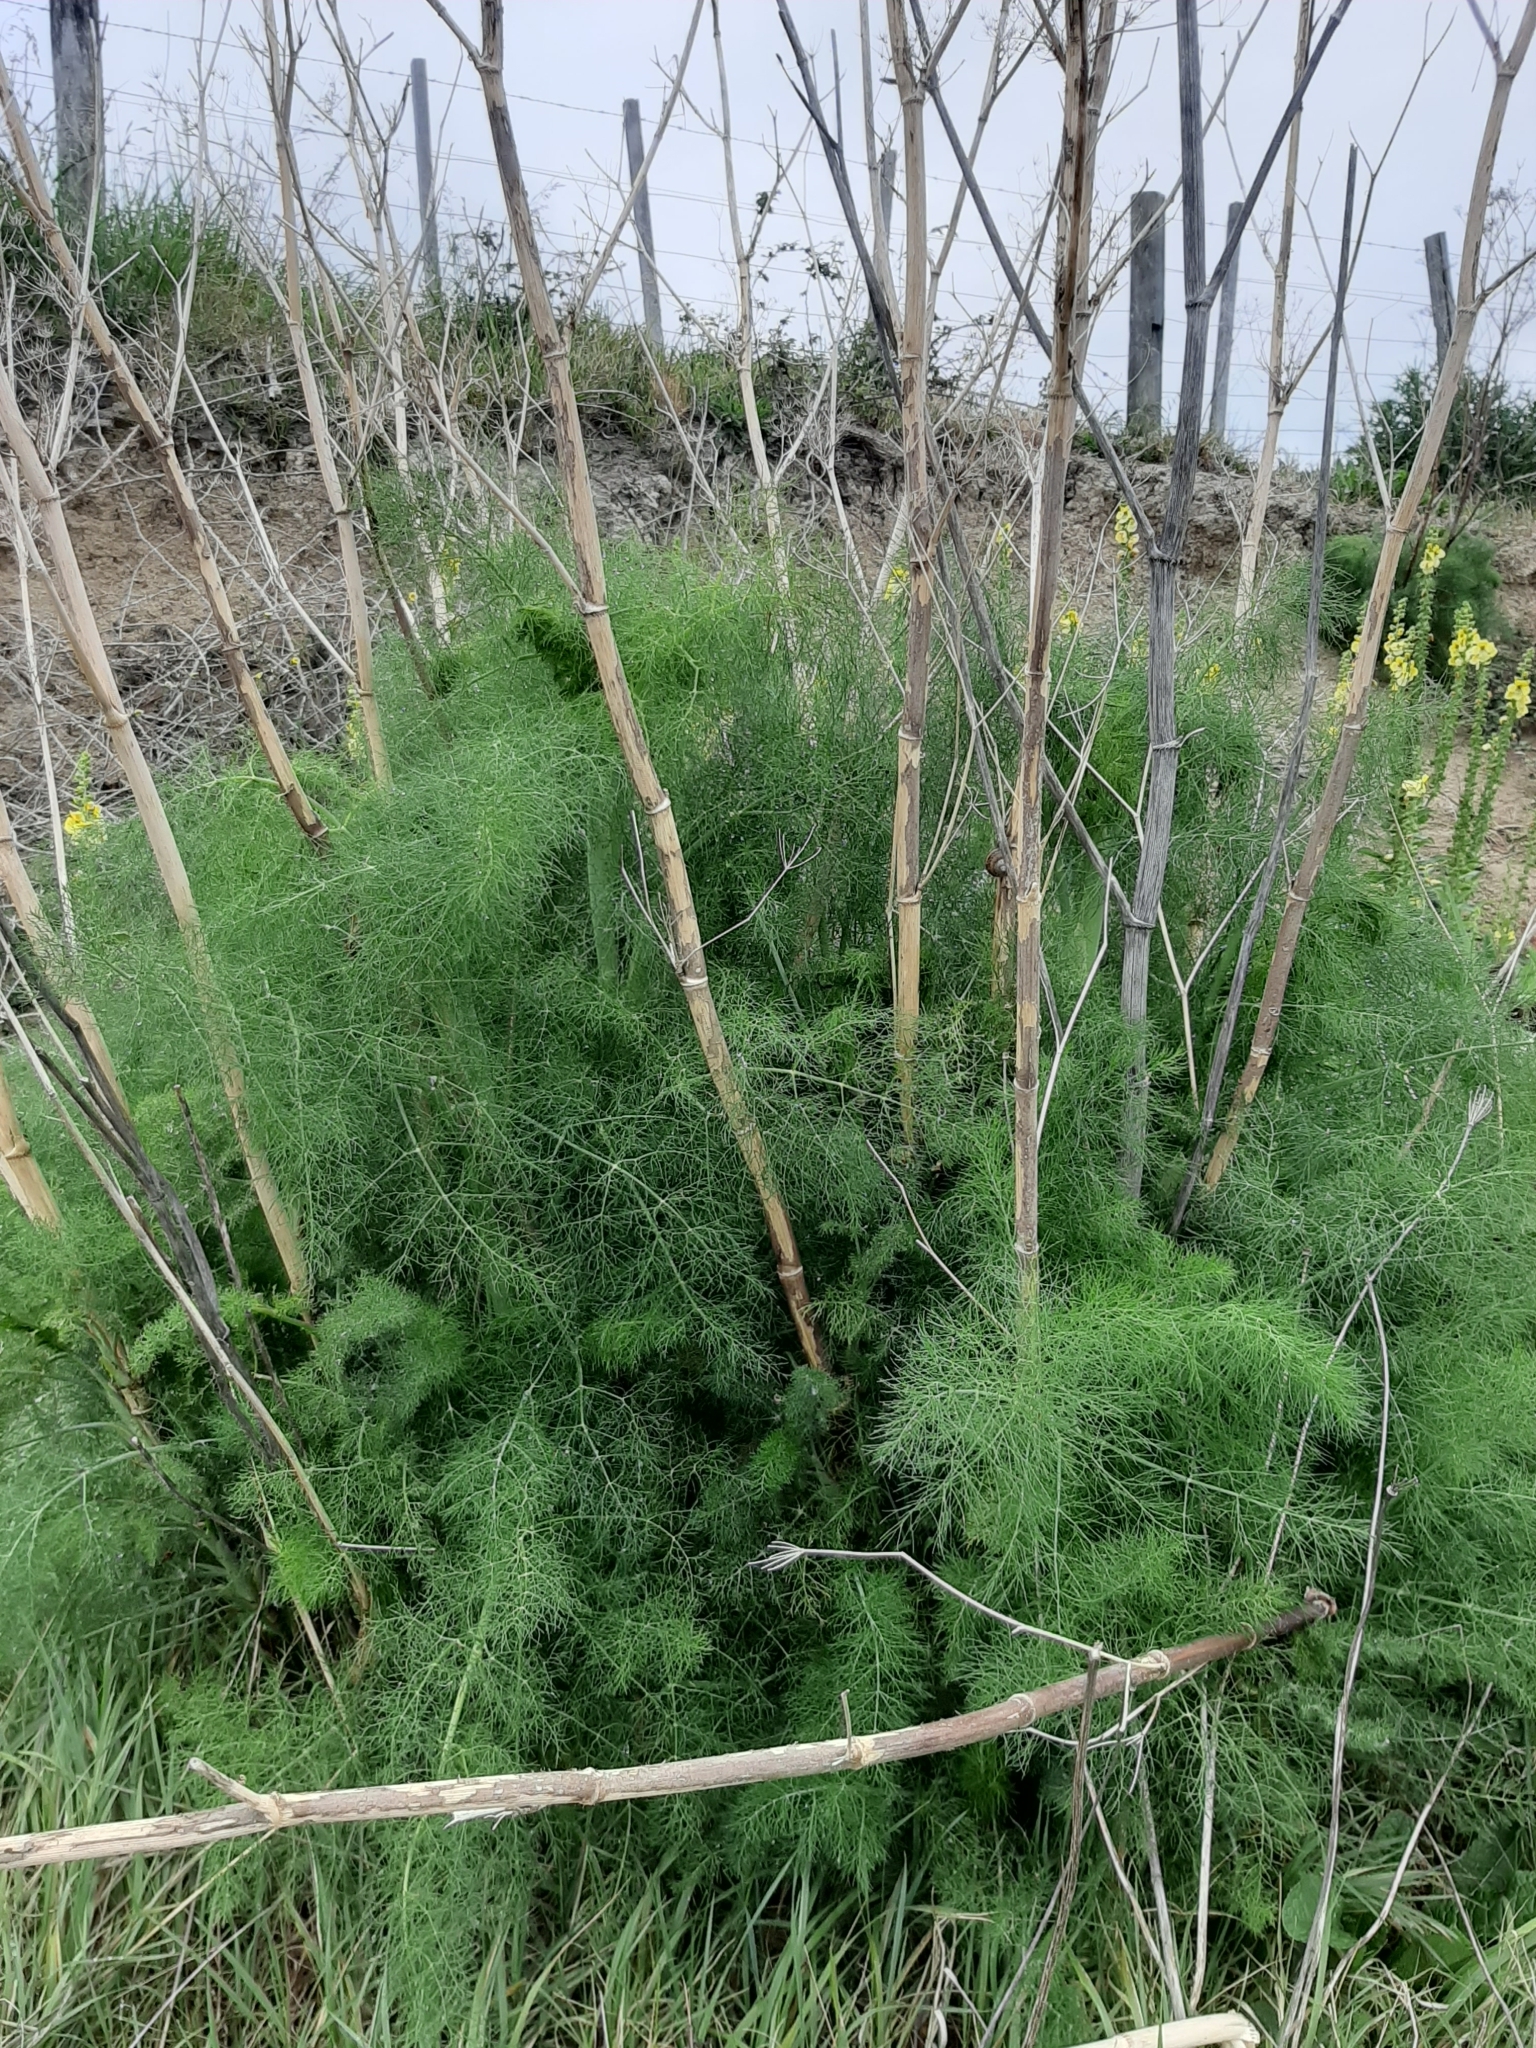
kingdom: Plantae
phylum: Tracheophyta
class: Magnoliopsida
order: Apiales
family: Apiaceae
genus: Foeniculum
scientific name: Foeniculum vulgare
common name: Fennel
